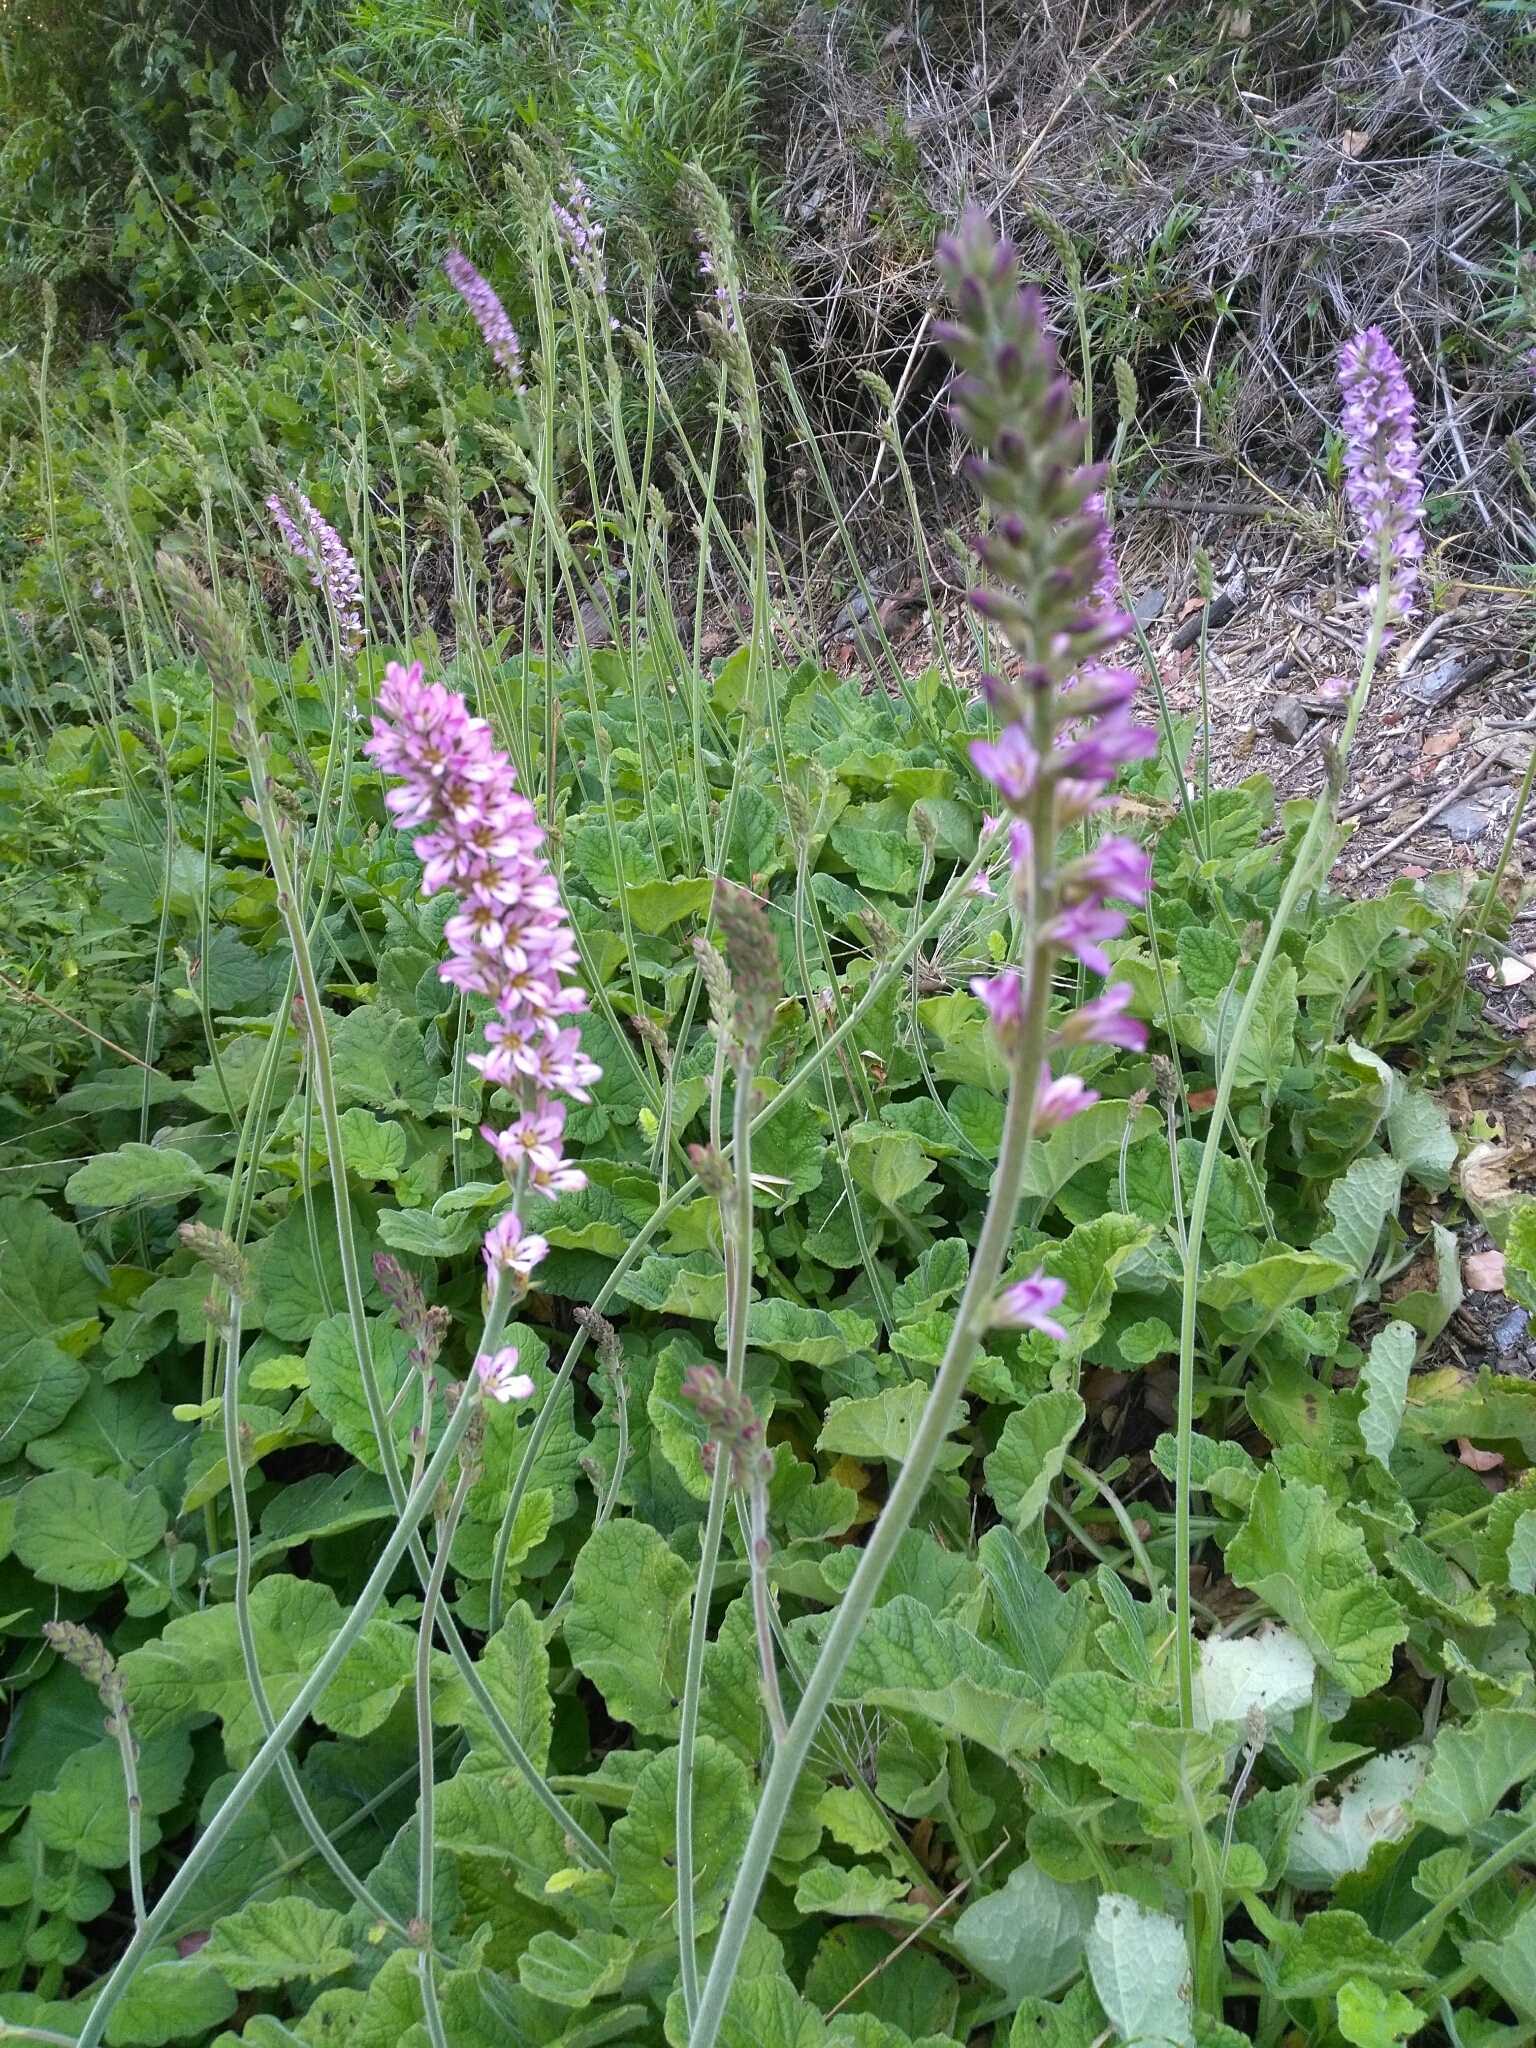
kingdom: Plantae
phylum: Tracheophyta
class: Magnoliopsida
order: Geraniales
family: Francoaceae
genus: Francoa
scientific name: Francoa appendiculata
